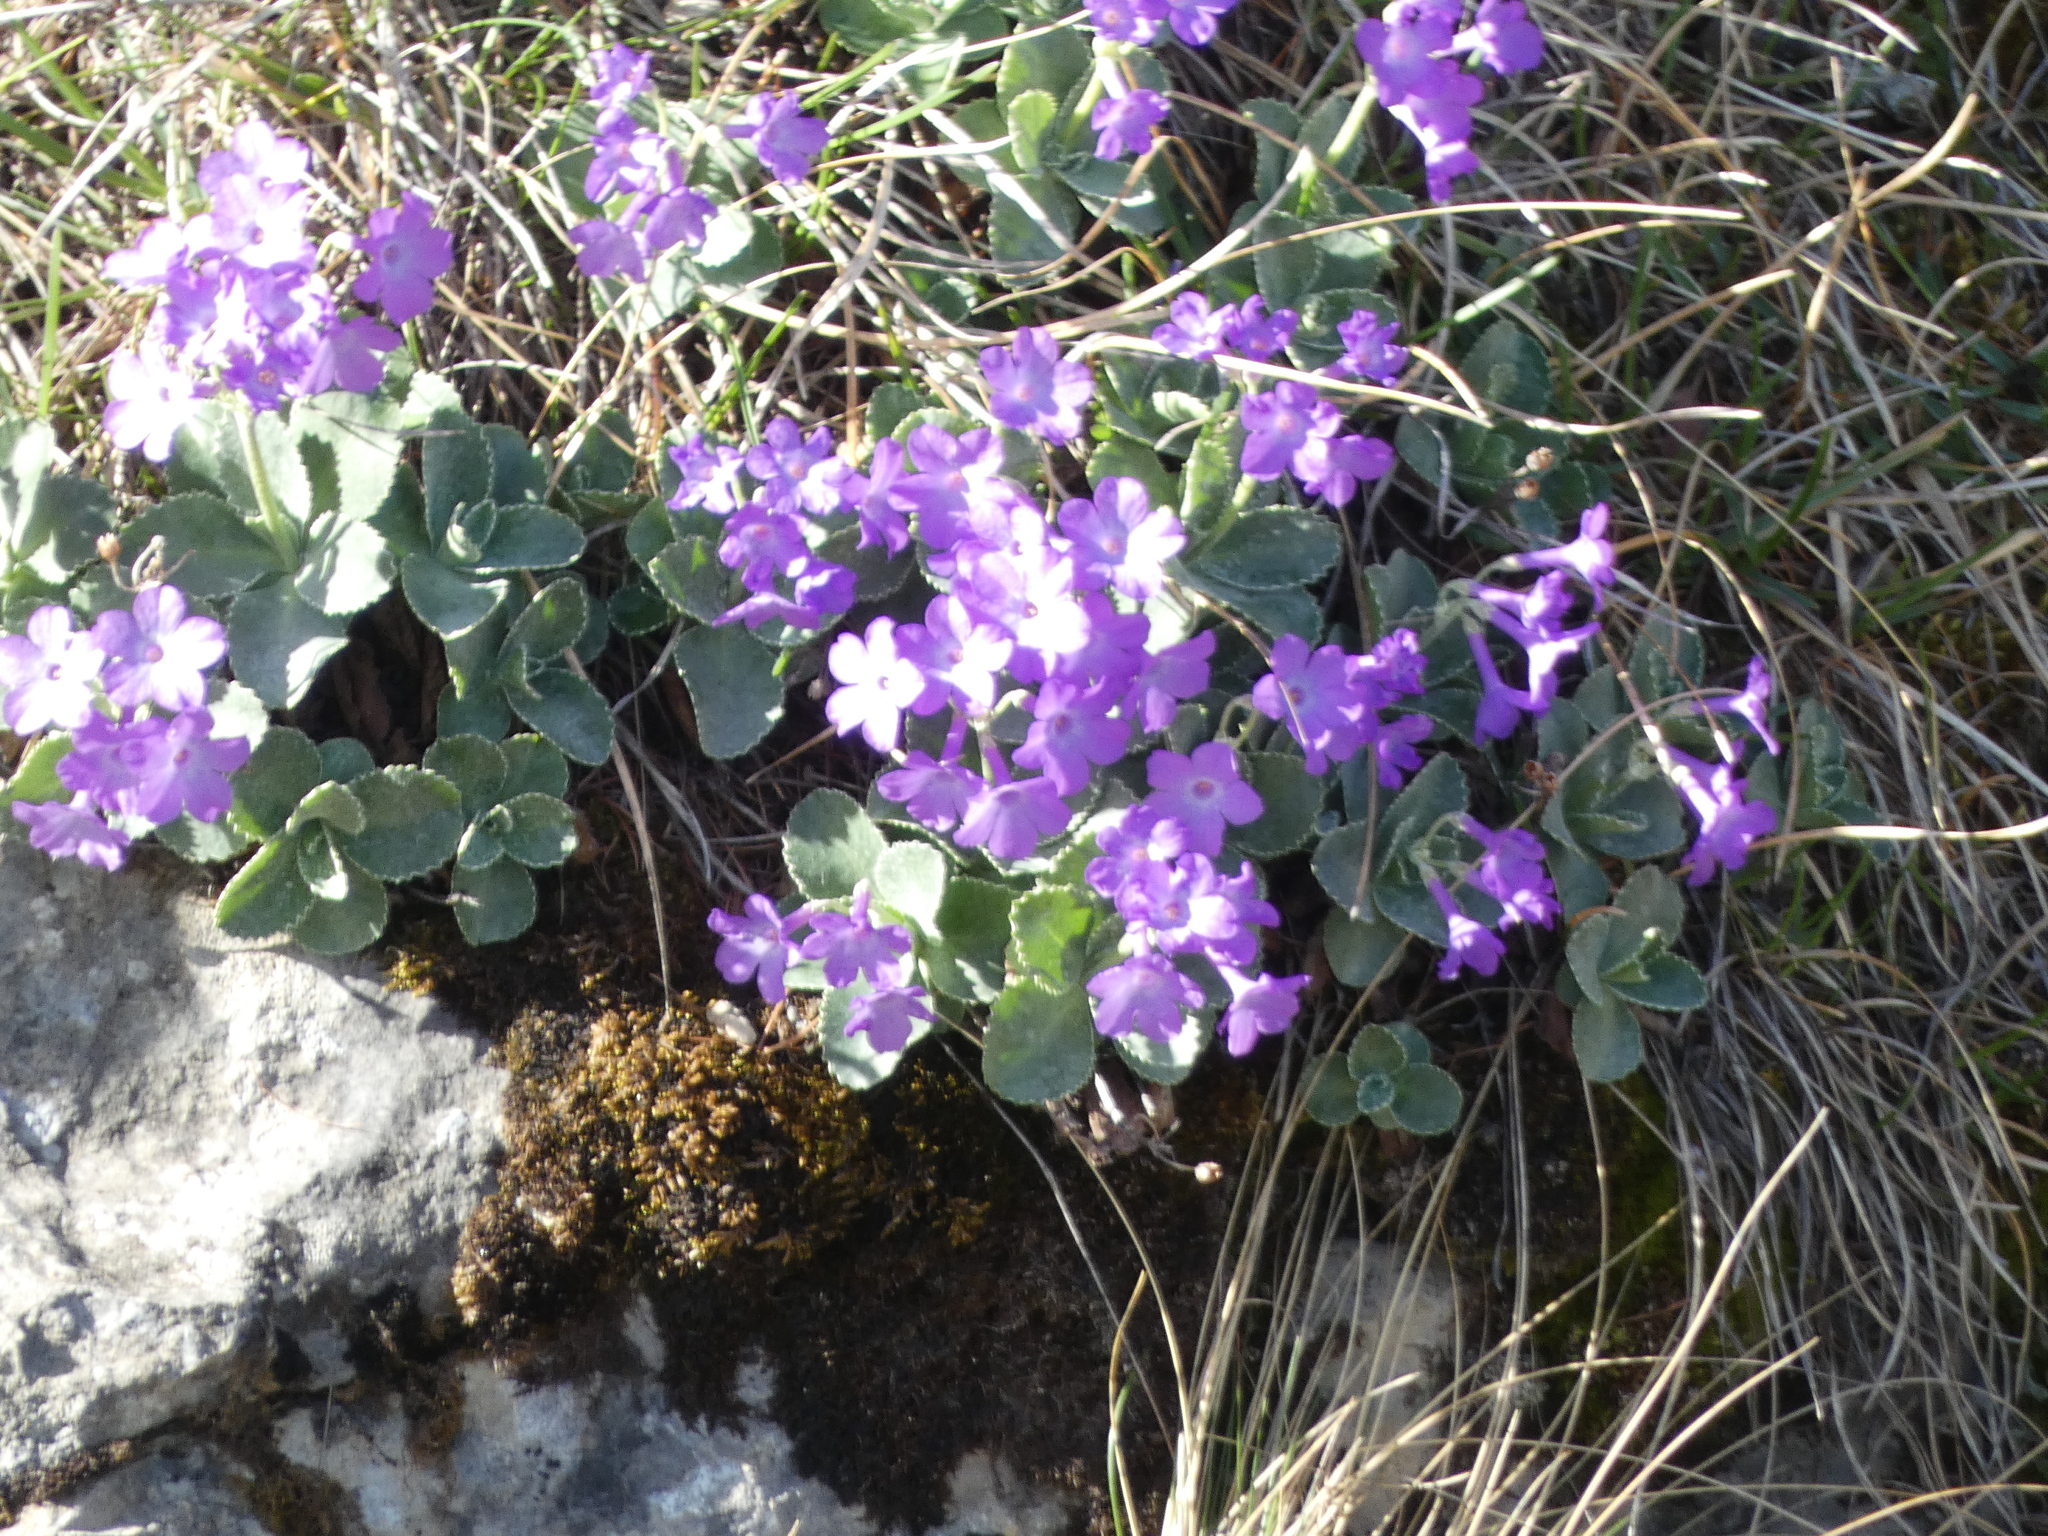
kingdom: Plantae
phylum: Tracheophyta
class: Magnoliopsida
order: Ericales
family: Primulaceae
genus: Primula
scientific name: Primula marginata
